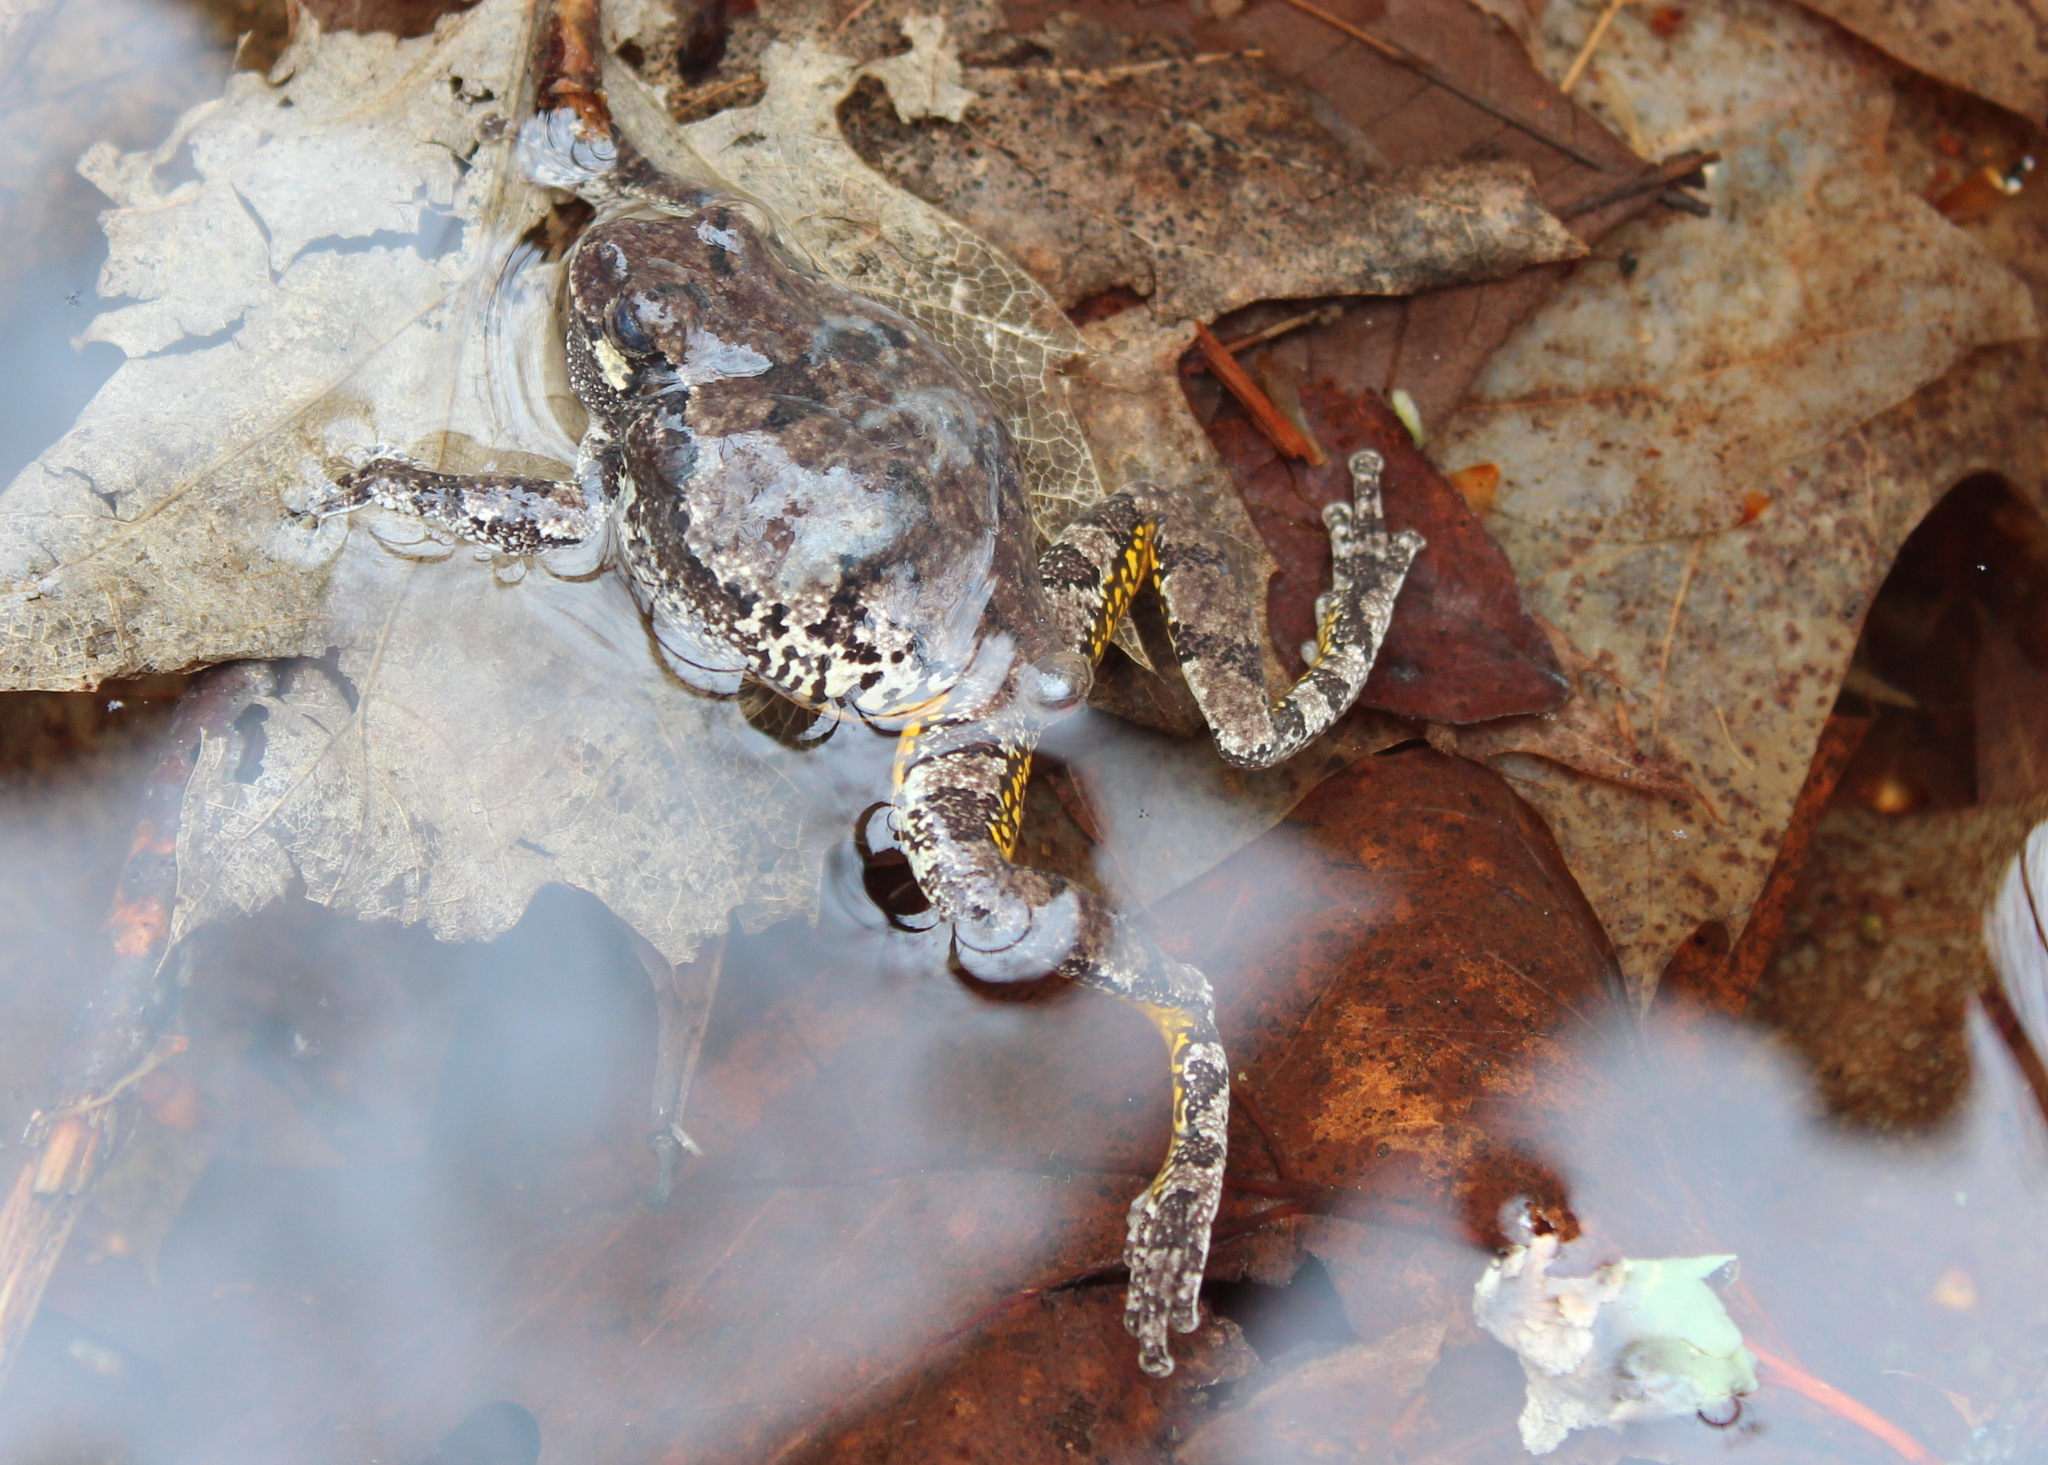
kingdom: Animalia
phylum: Chordata
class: Amphibia
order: Anura
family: Hylidae
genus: Dryophytes
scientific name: Dryophytes versicolor
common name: Gray treefrog
